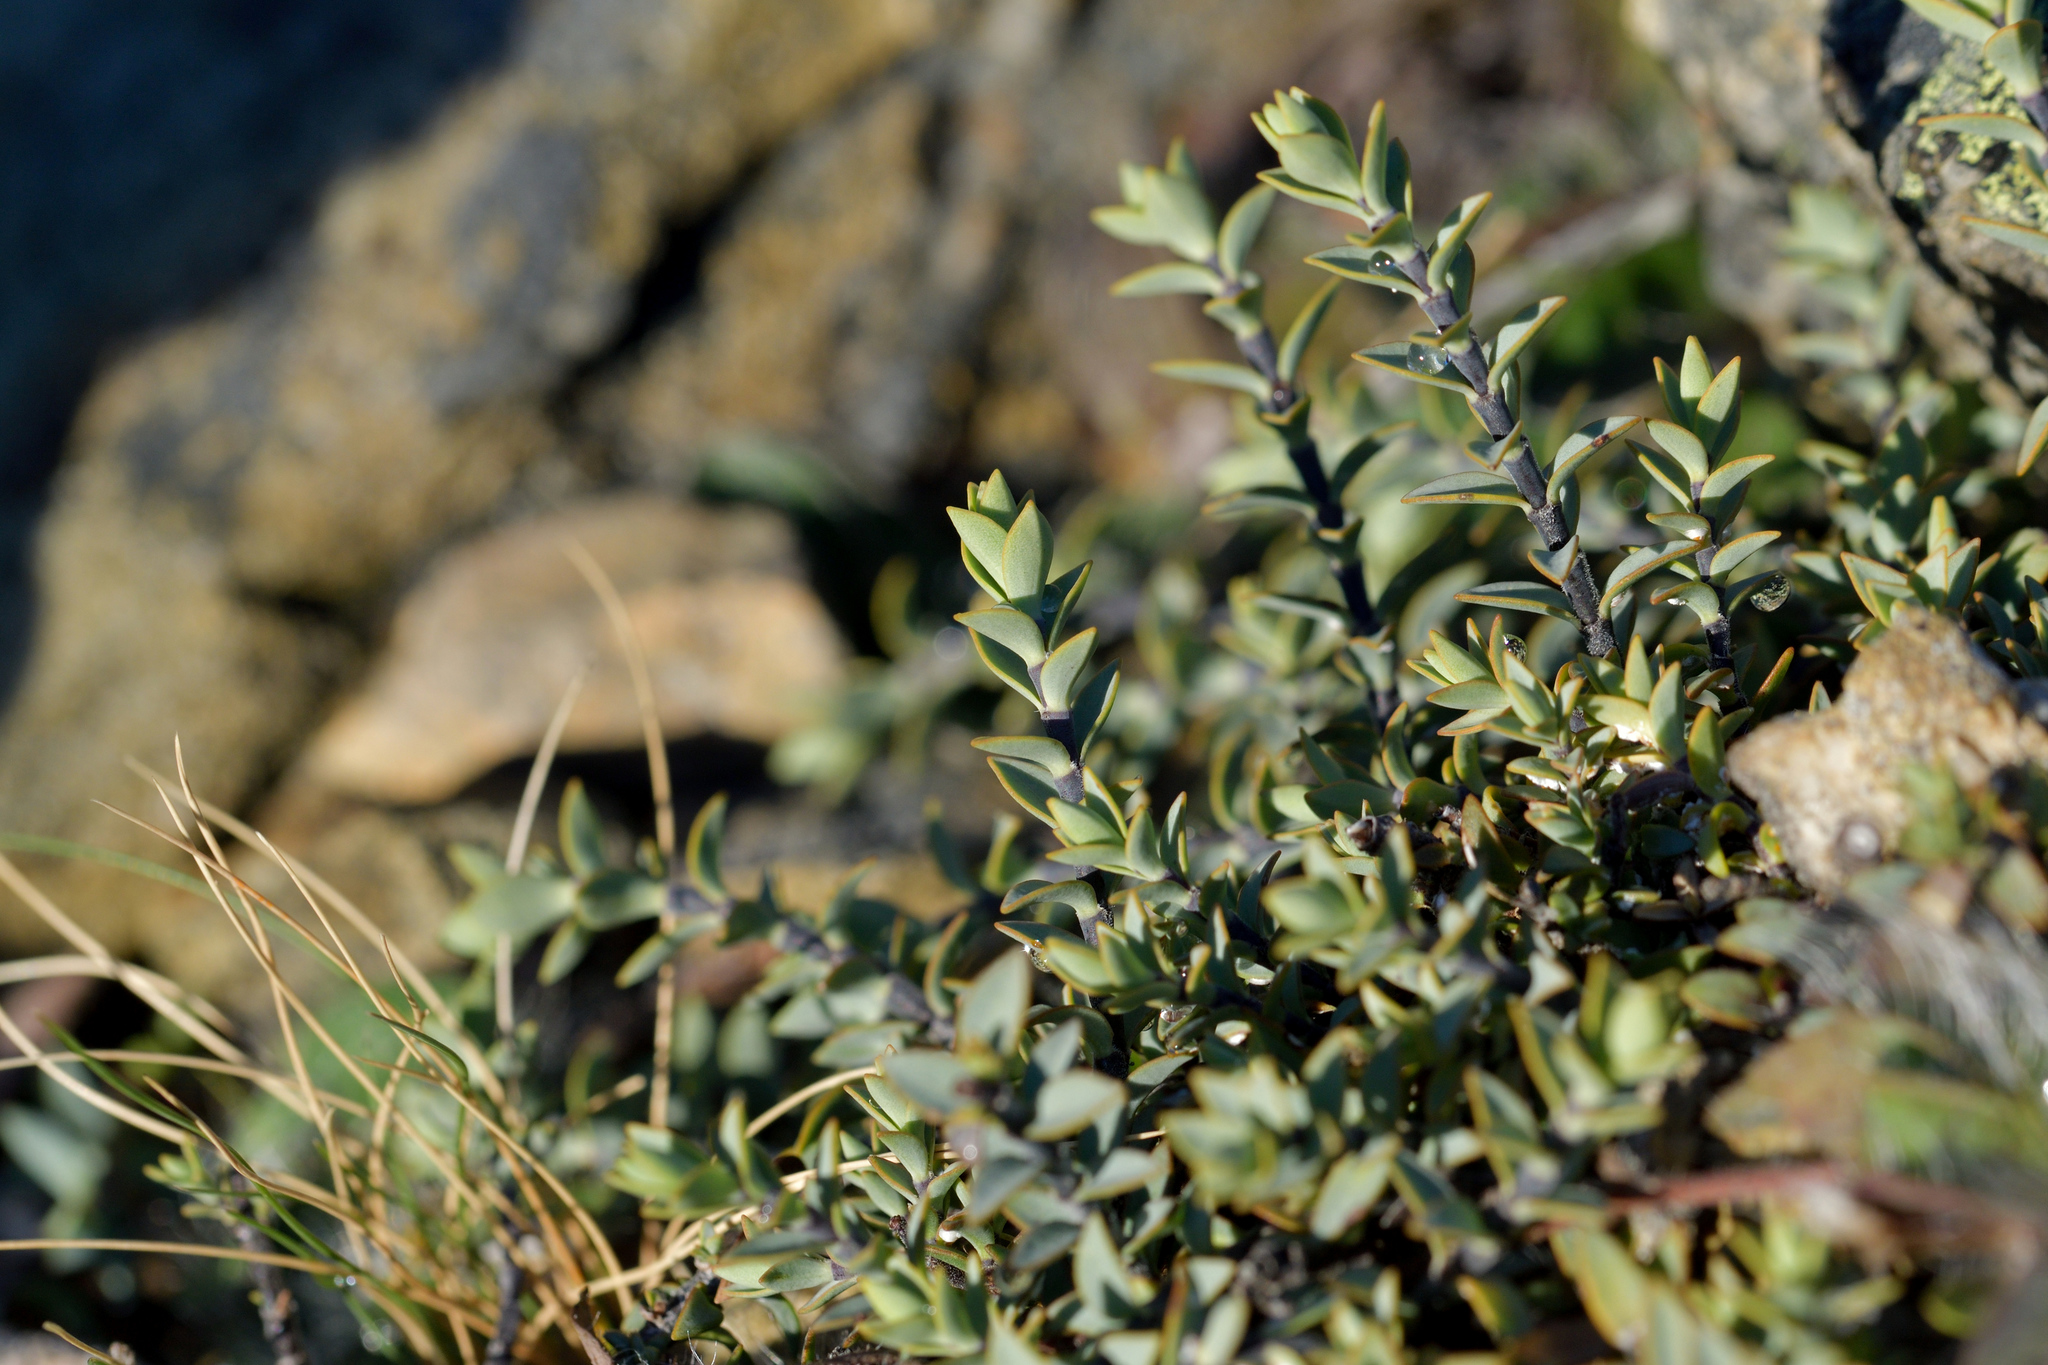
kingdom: Plantae
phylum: Tracheophyta
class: Magnoliopsida
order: Lamiales
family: Plantaginaceae
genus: Veronica
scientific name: Veronica pimeleoides
